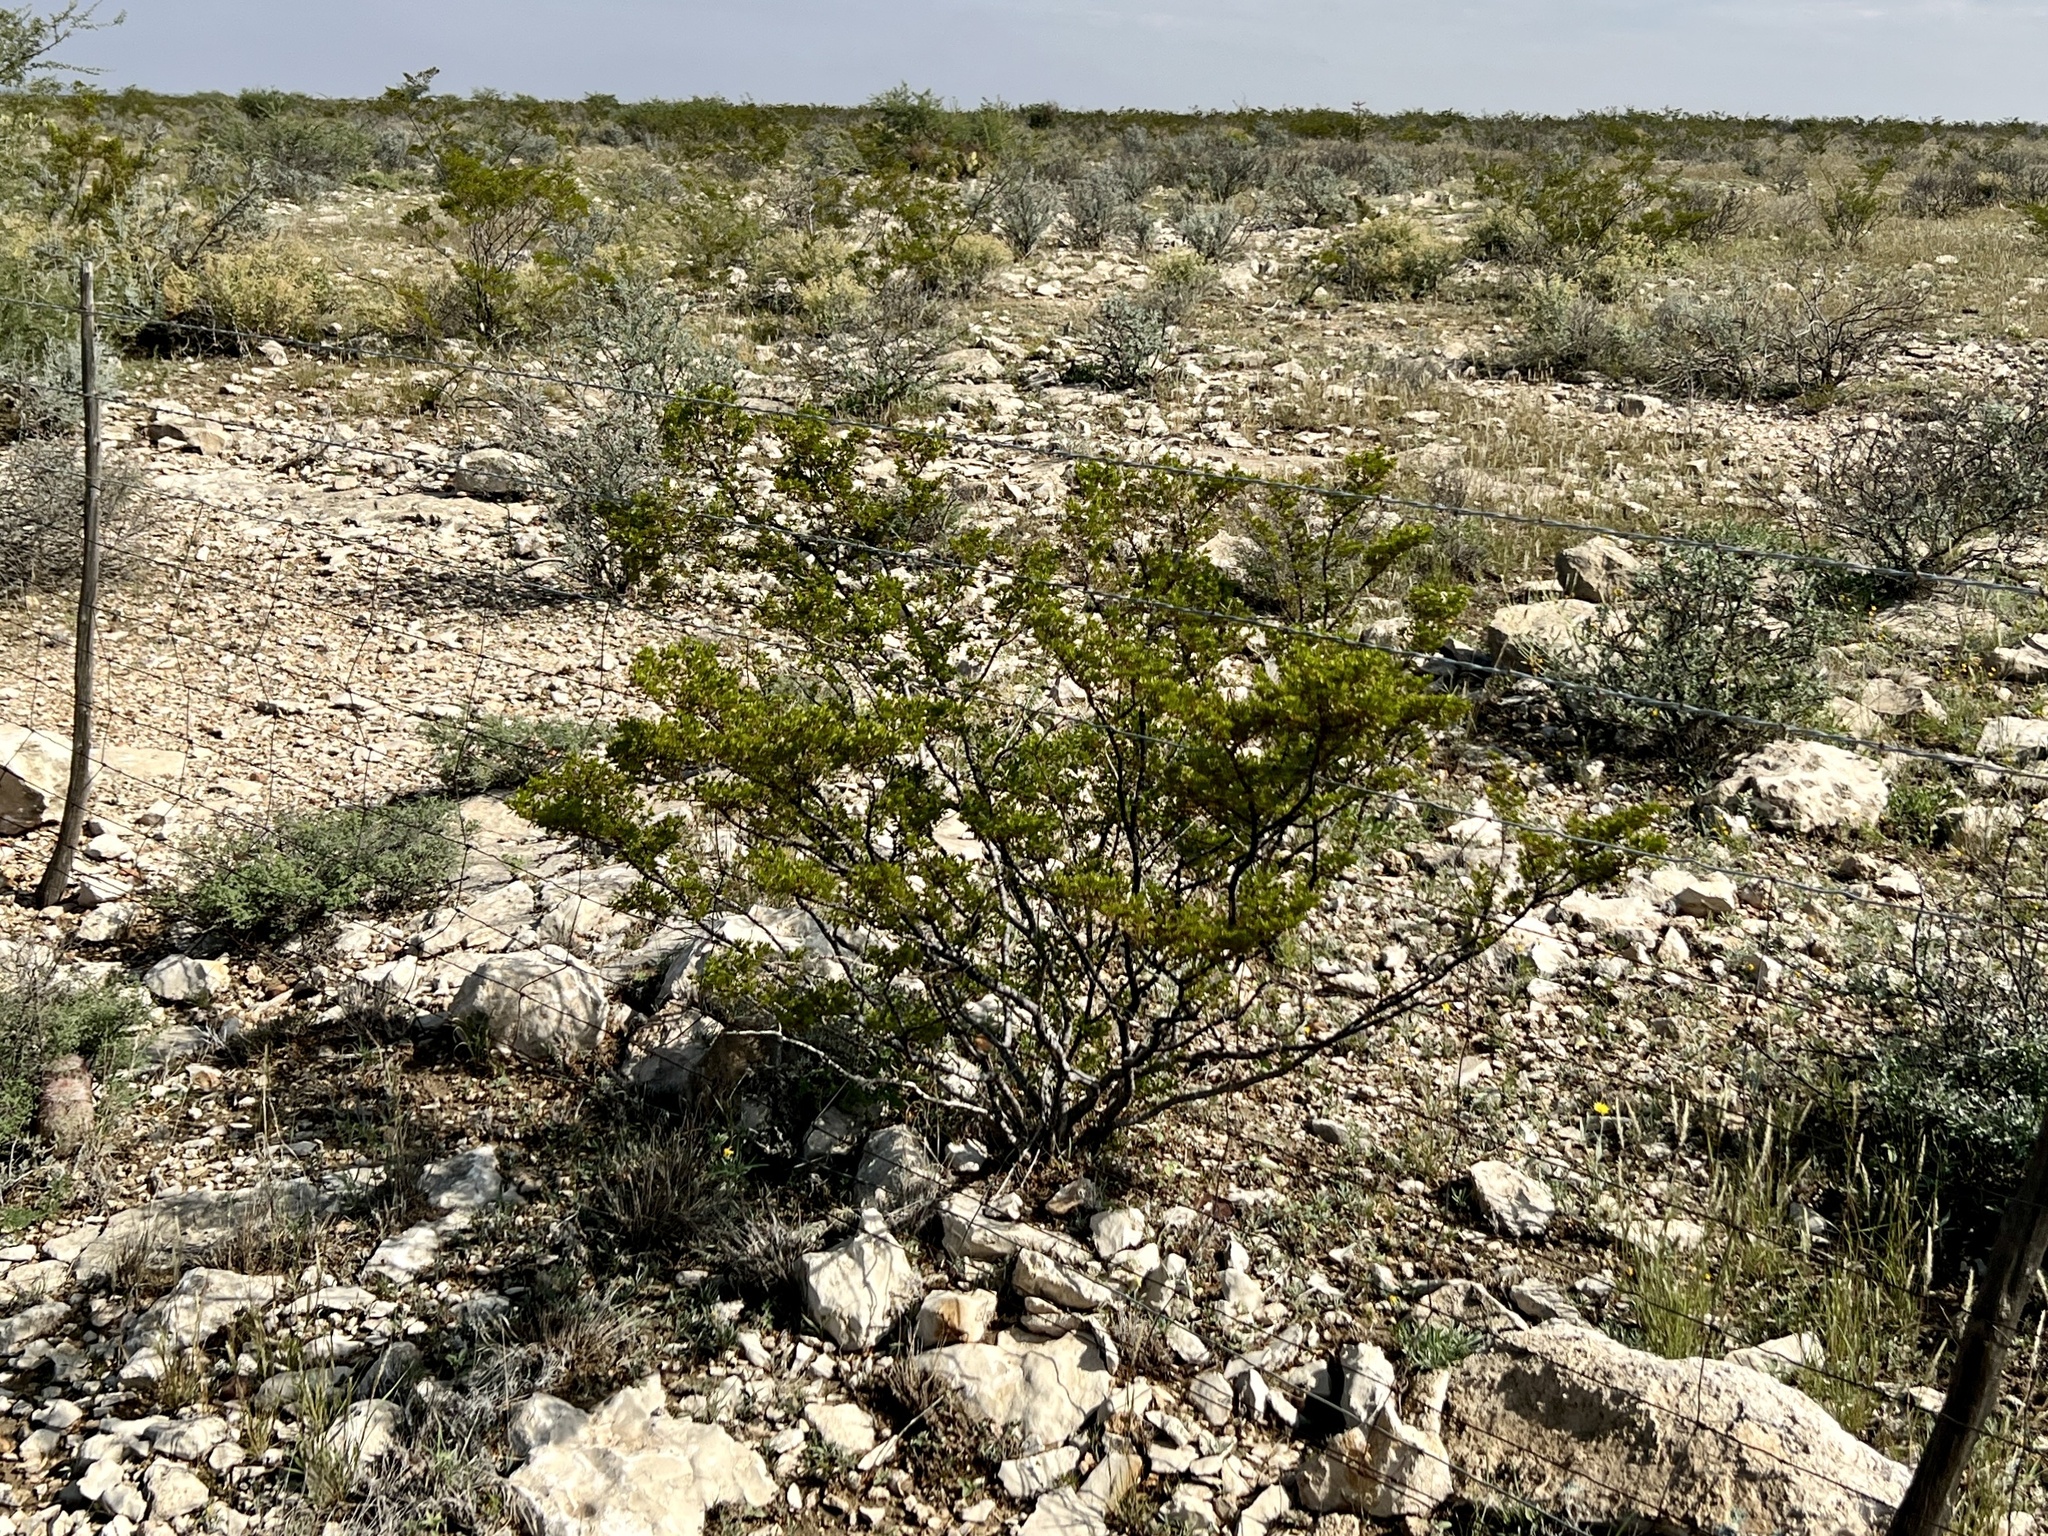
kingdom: Plantae
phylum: Tracheophyta
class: Magnoliopsida
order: Zygophyllales
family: Zygophyllaceae
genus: Larrea
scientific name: Larrea tridentata
